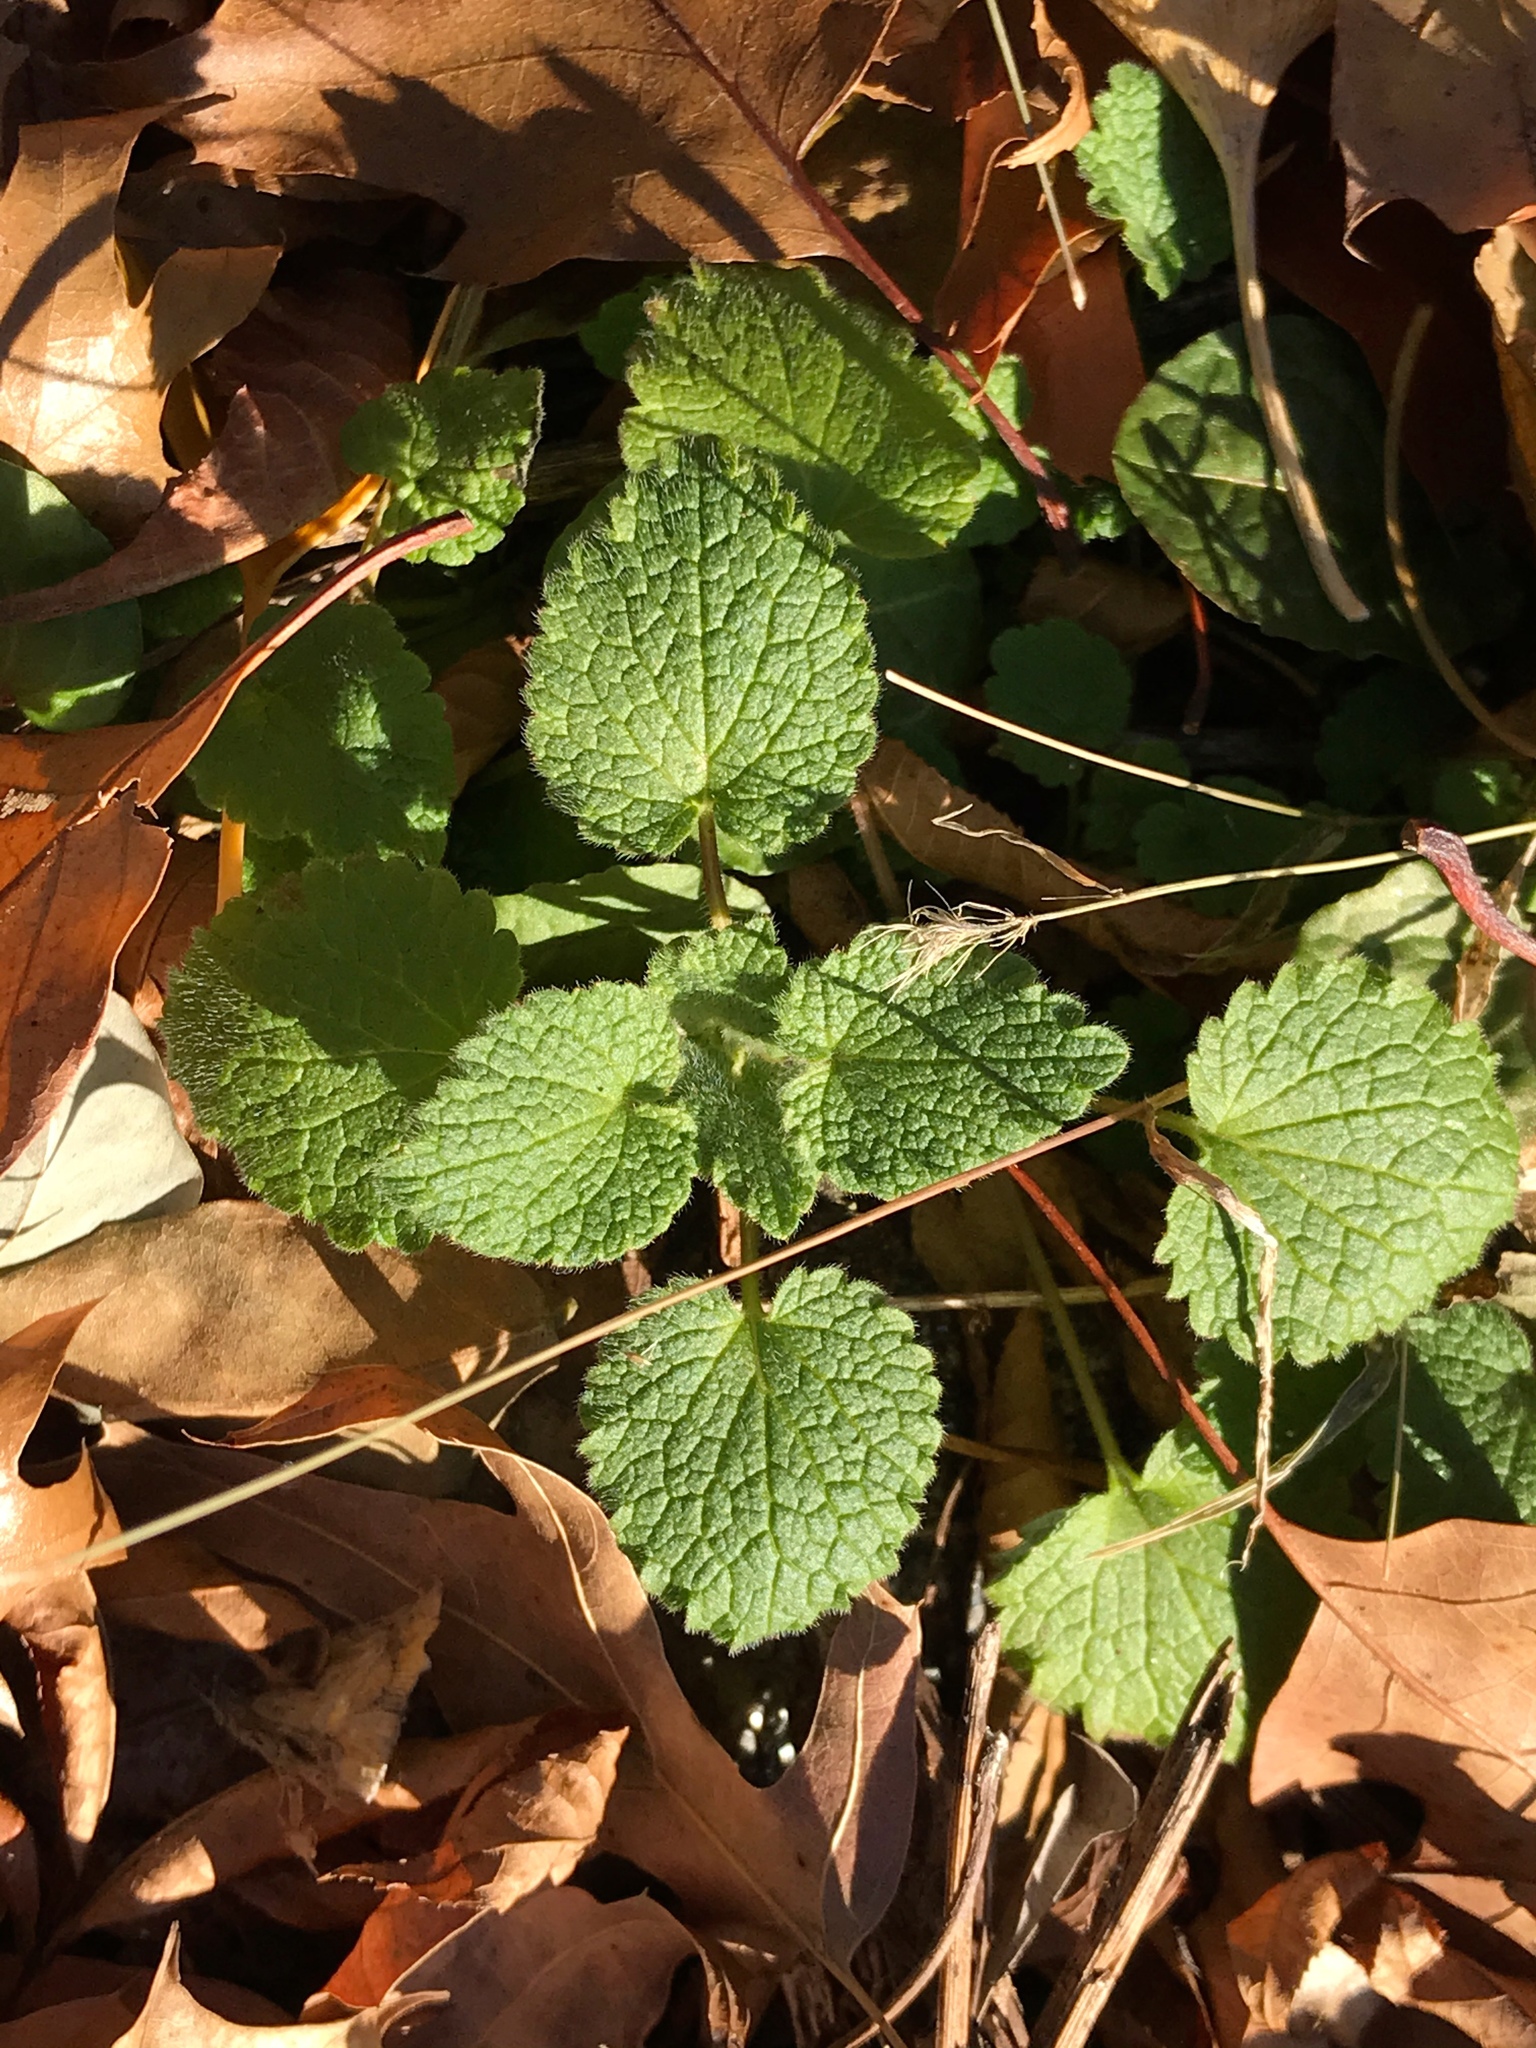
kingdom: Plantae
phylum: Tracheophyta
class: Magnoliopsida
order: Lamiales
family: Lamiaceae
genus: Lamium
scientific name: Lamium purpureum
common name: Red dead-nettle
